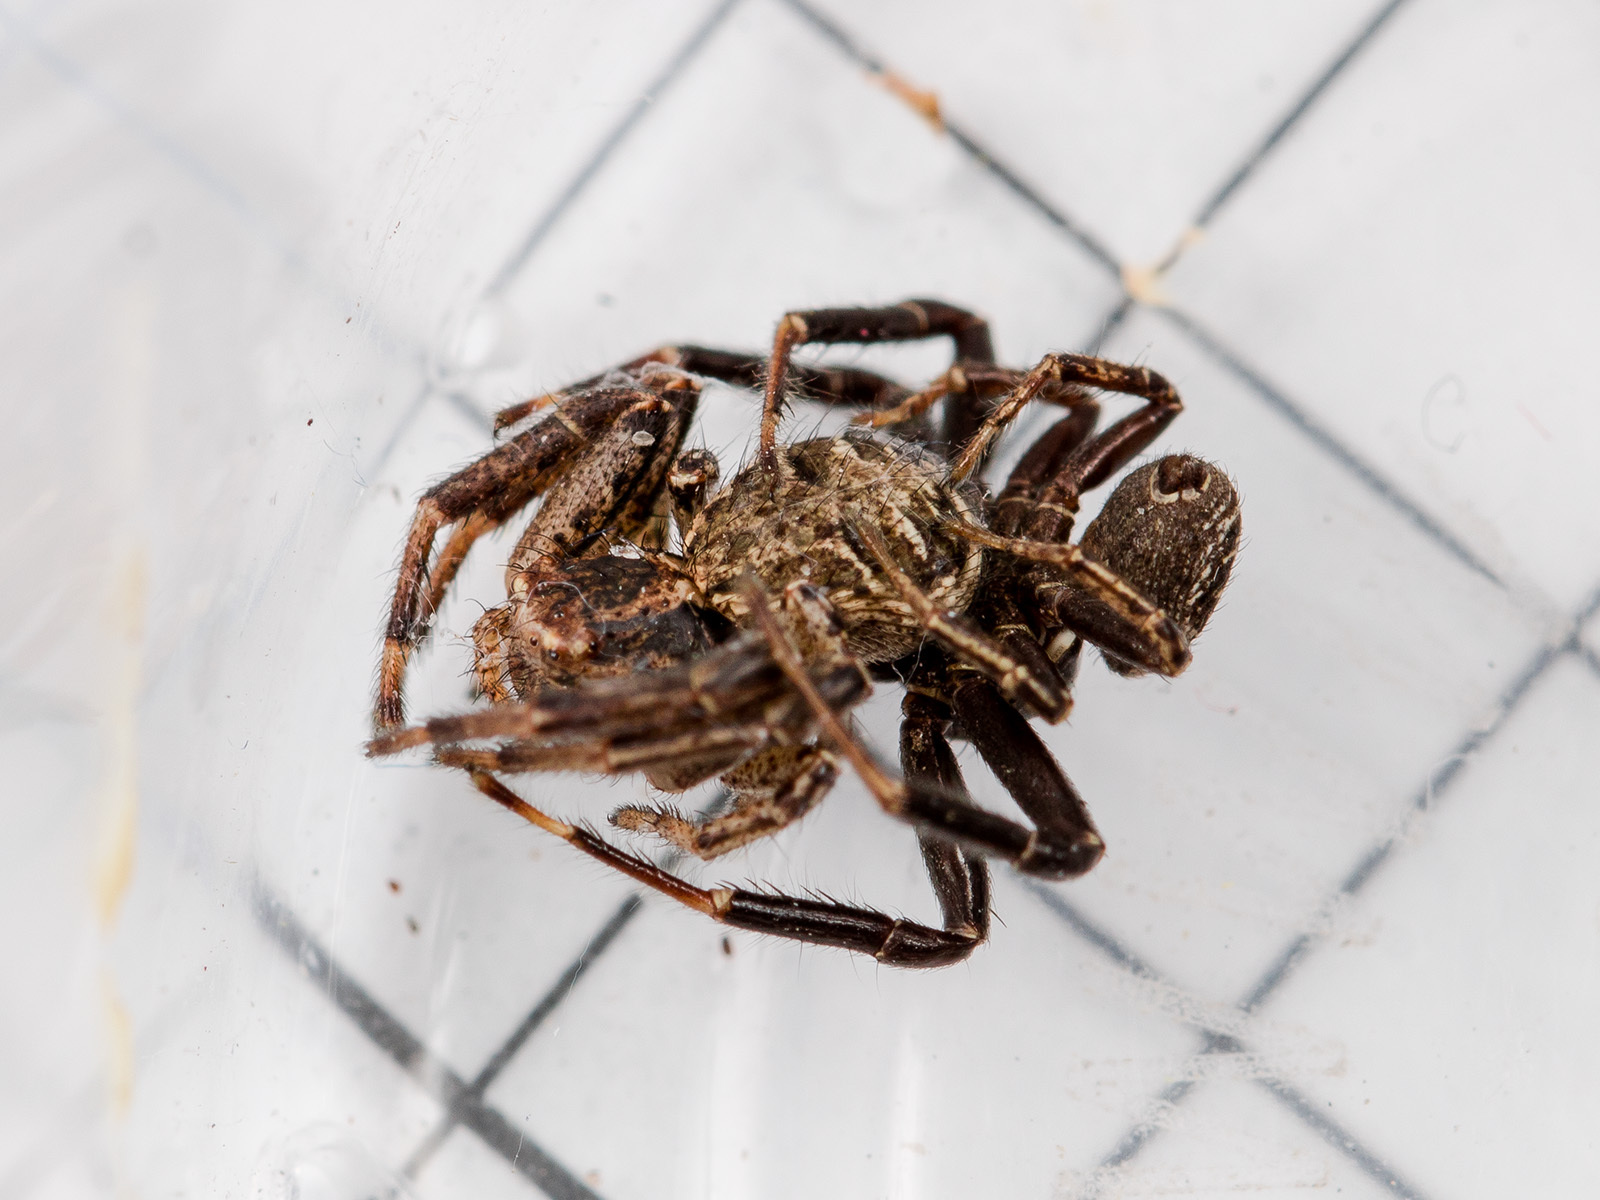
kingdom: Animalia
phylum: Arthropoda
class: Arachnida
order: Araneae
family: Thomisidae
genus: Xysticus
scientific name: Xysticus pseudoluctuosus
